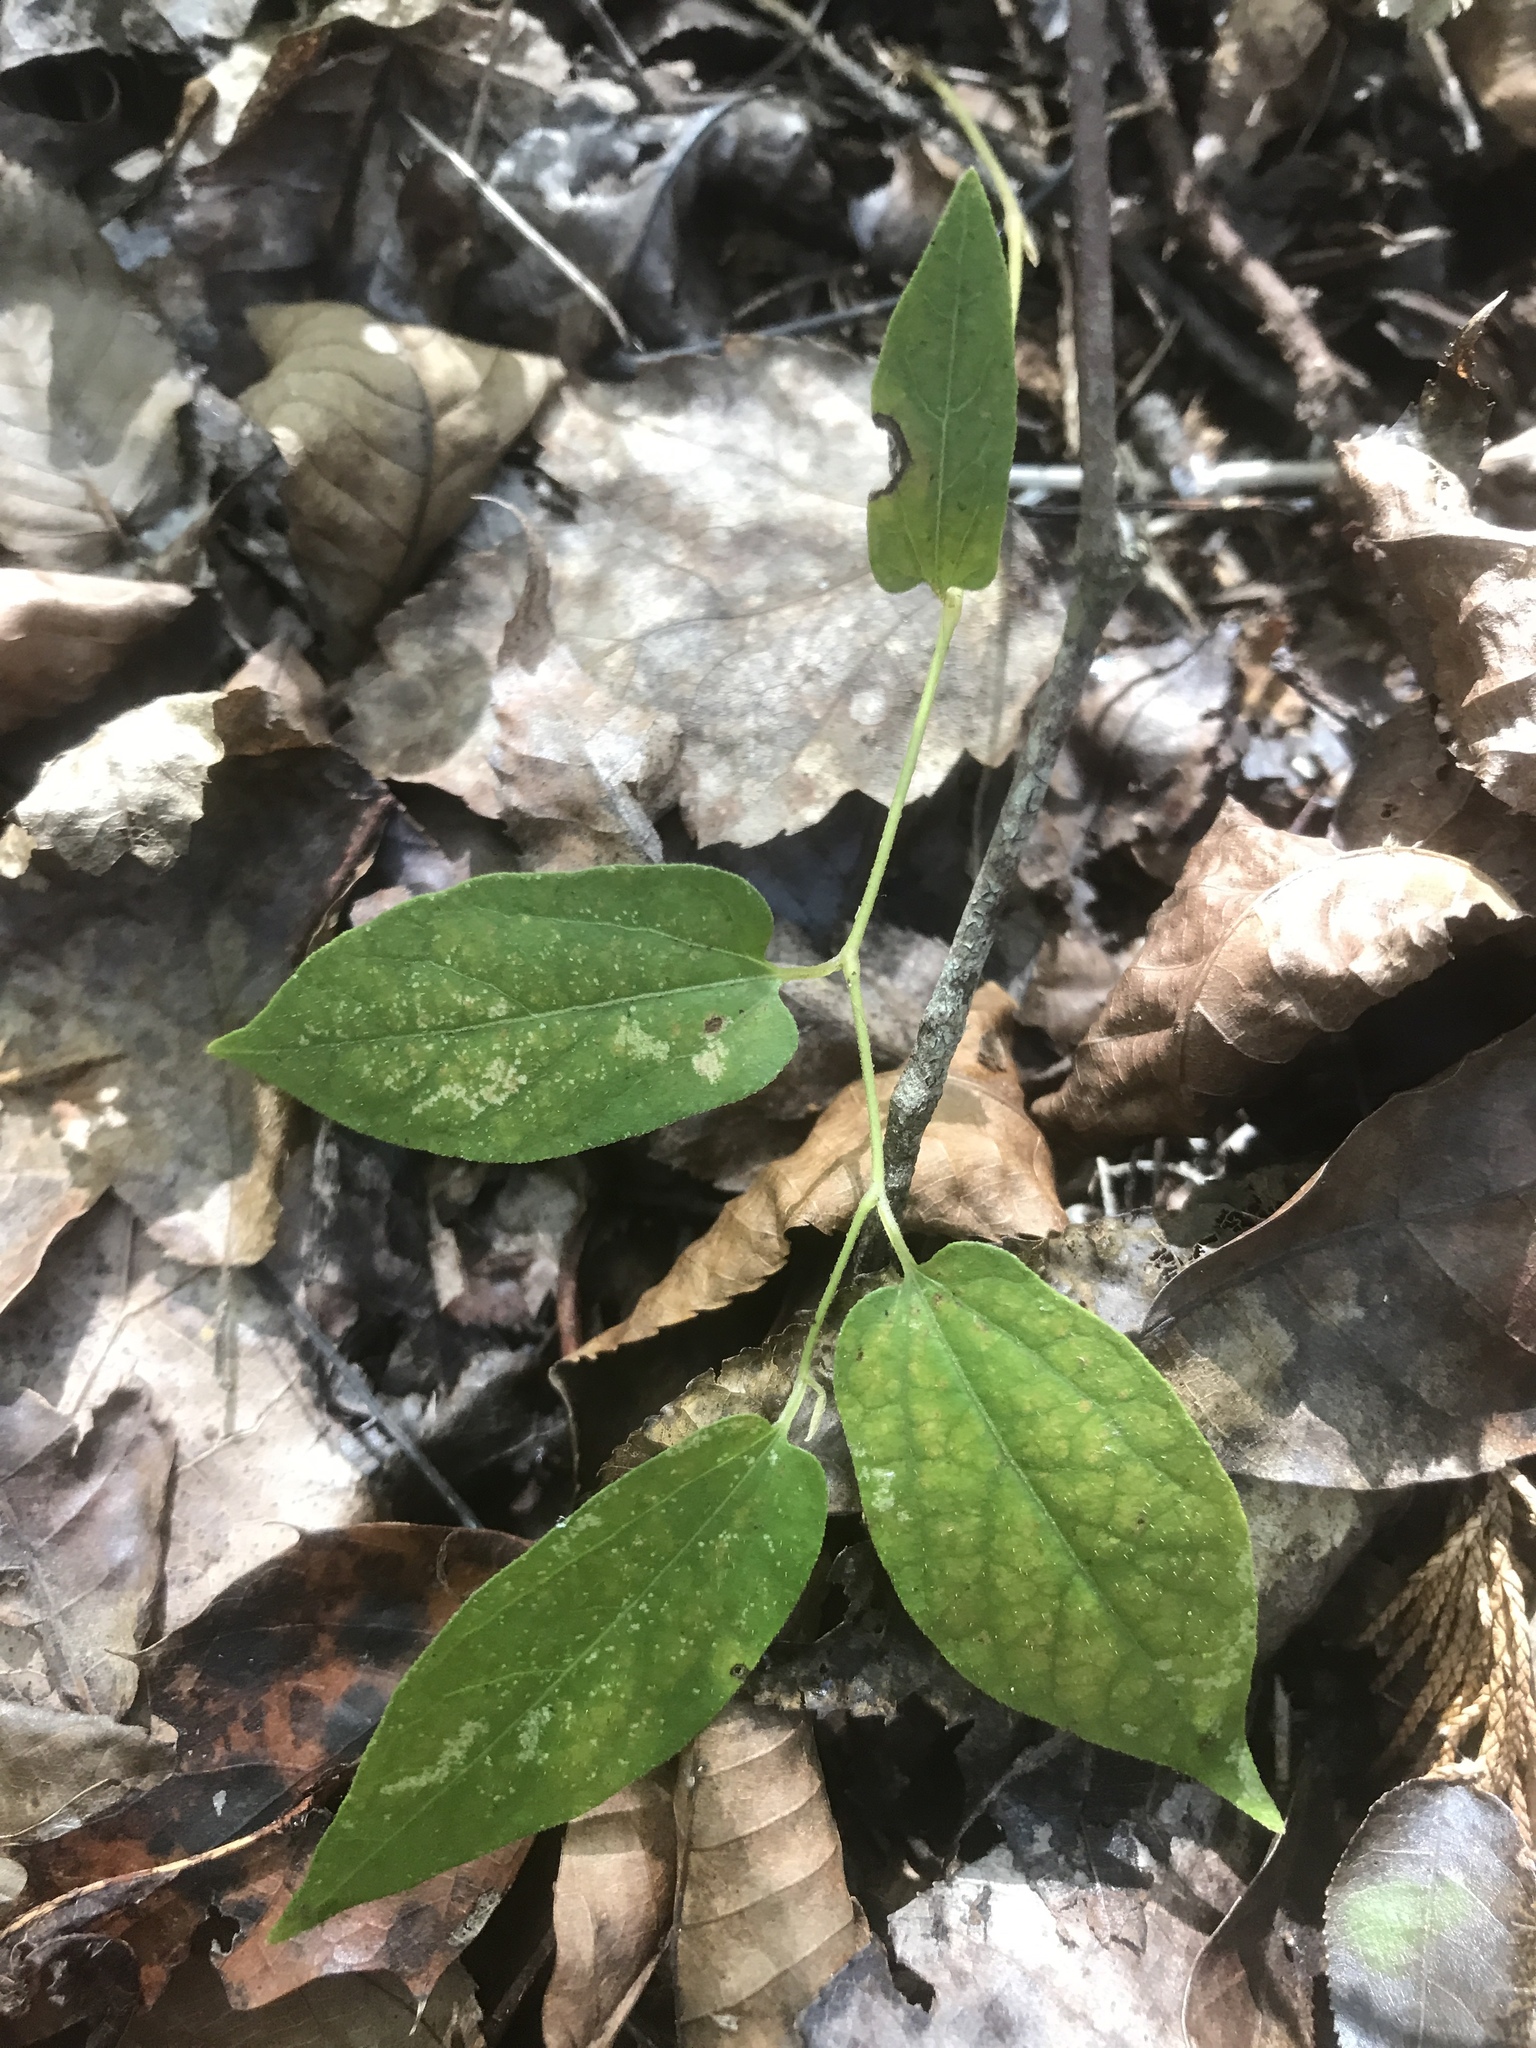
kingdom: Plantae
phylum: Tracheophyta
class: Magnoliopsida
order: Piperales
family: Aristolochiaceae
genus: Endodeca
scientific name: Endodeca serpentaria
